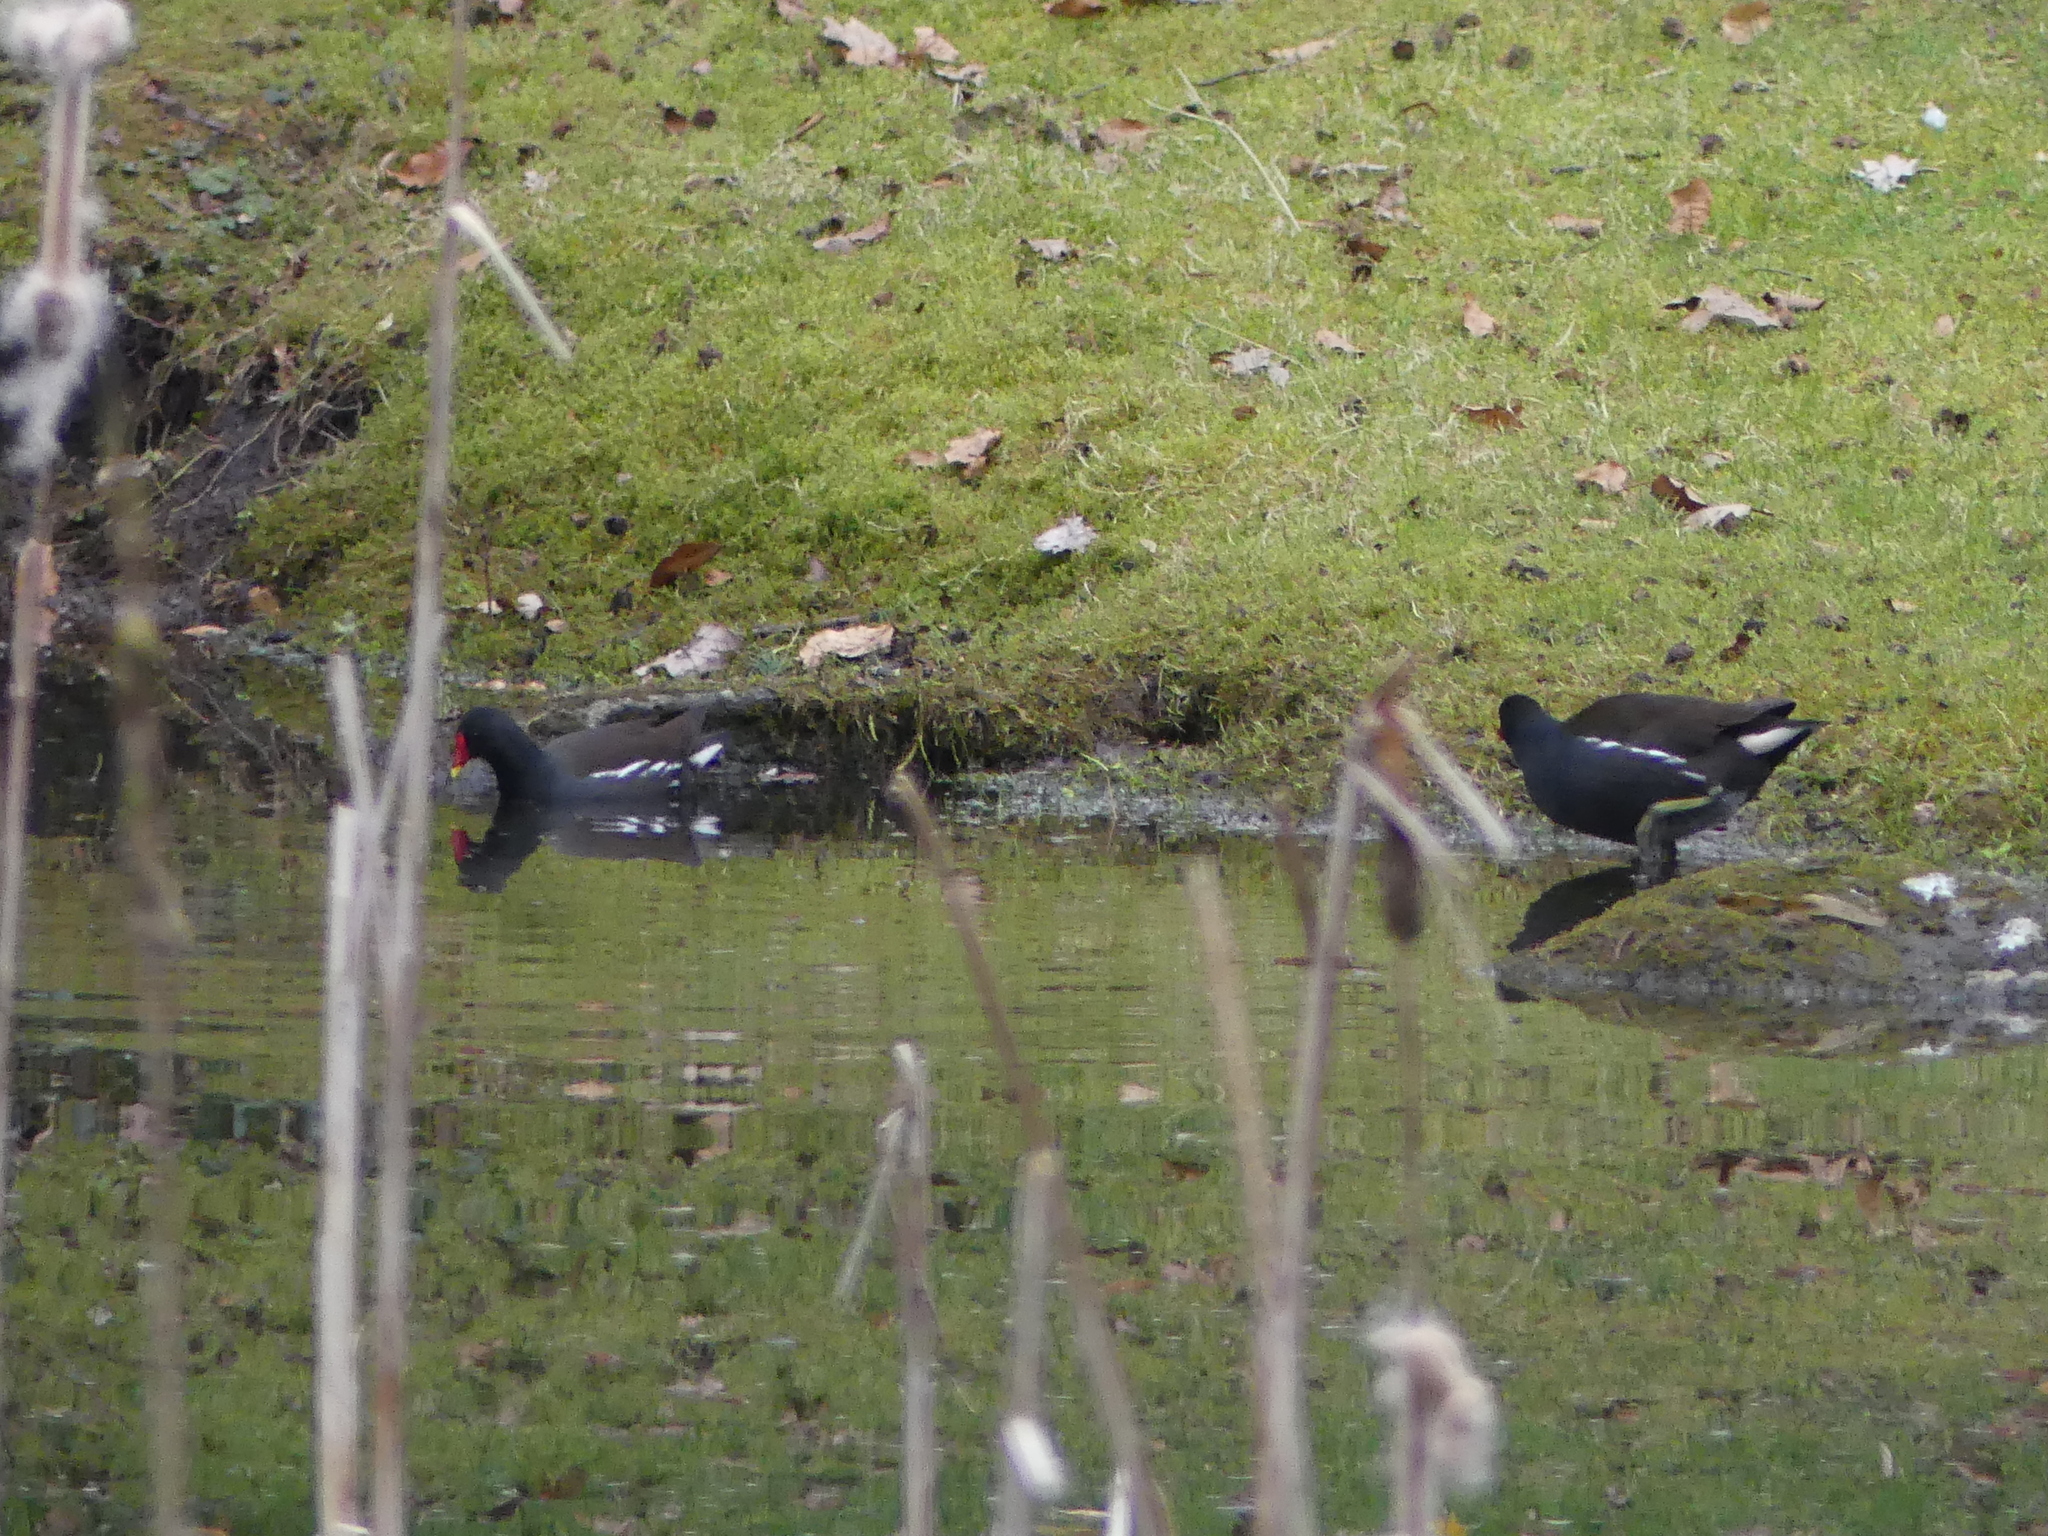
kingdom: Animalia
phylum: Chordata
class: Aves
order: Gruiformes
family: Rallidae
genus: Gallinula
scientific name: Gallinula chloropus
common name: Common moorhen
